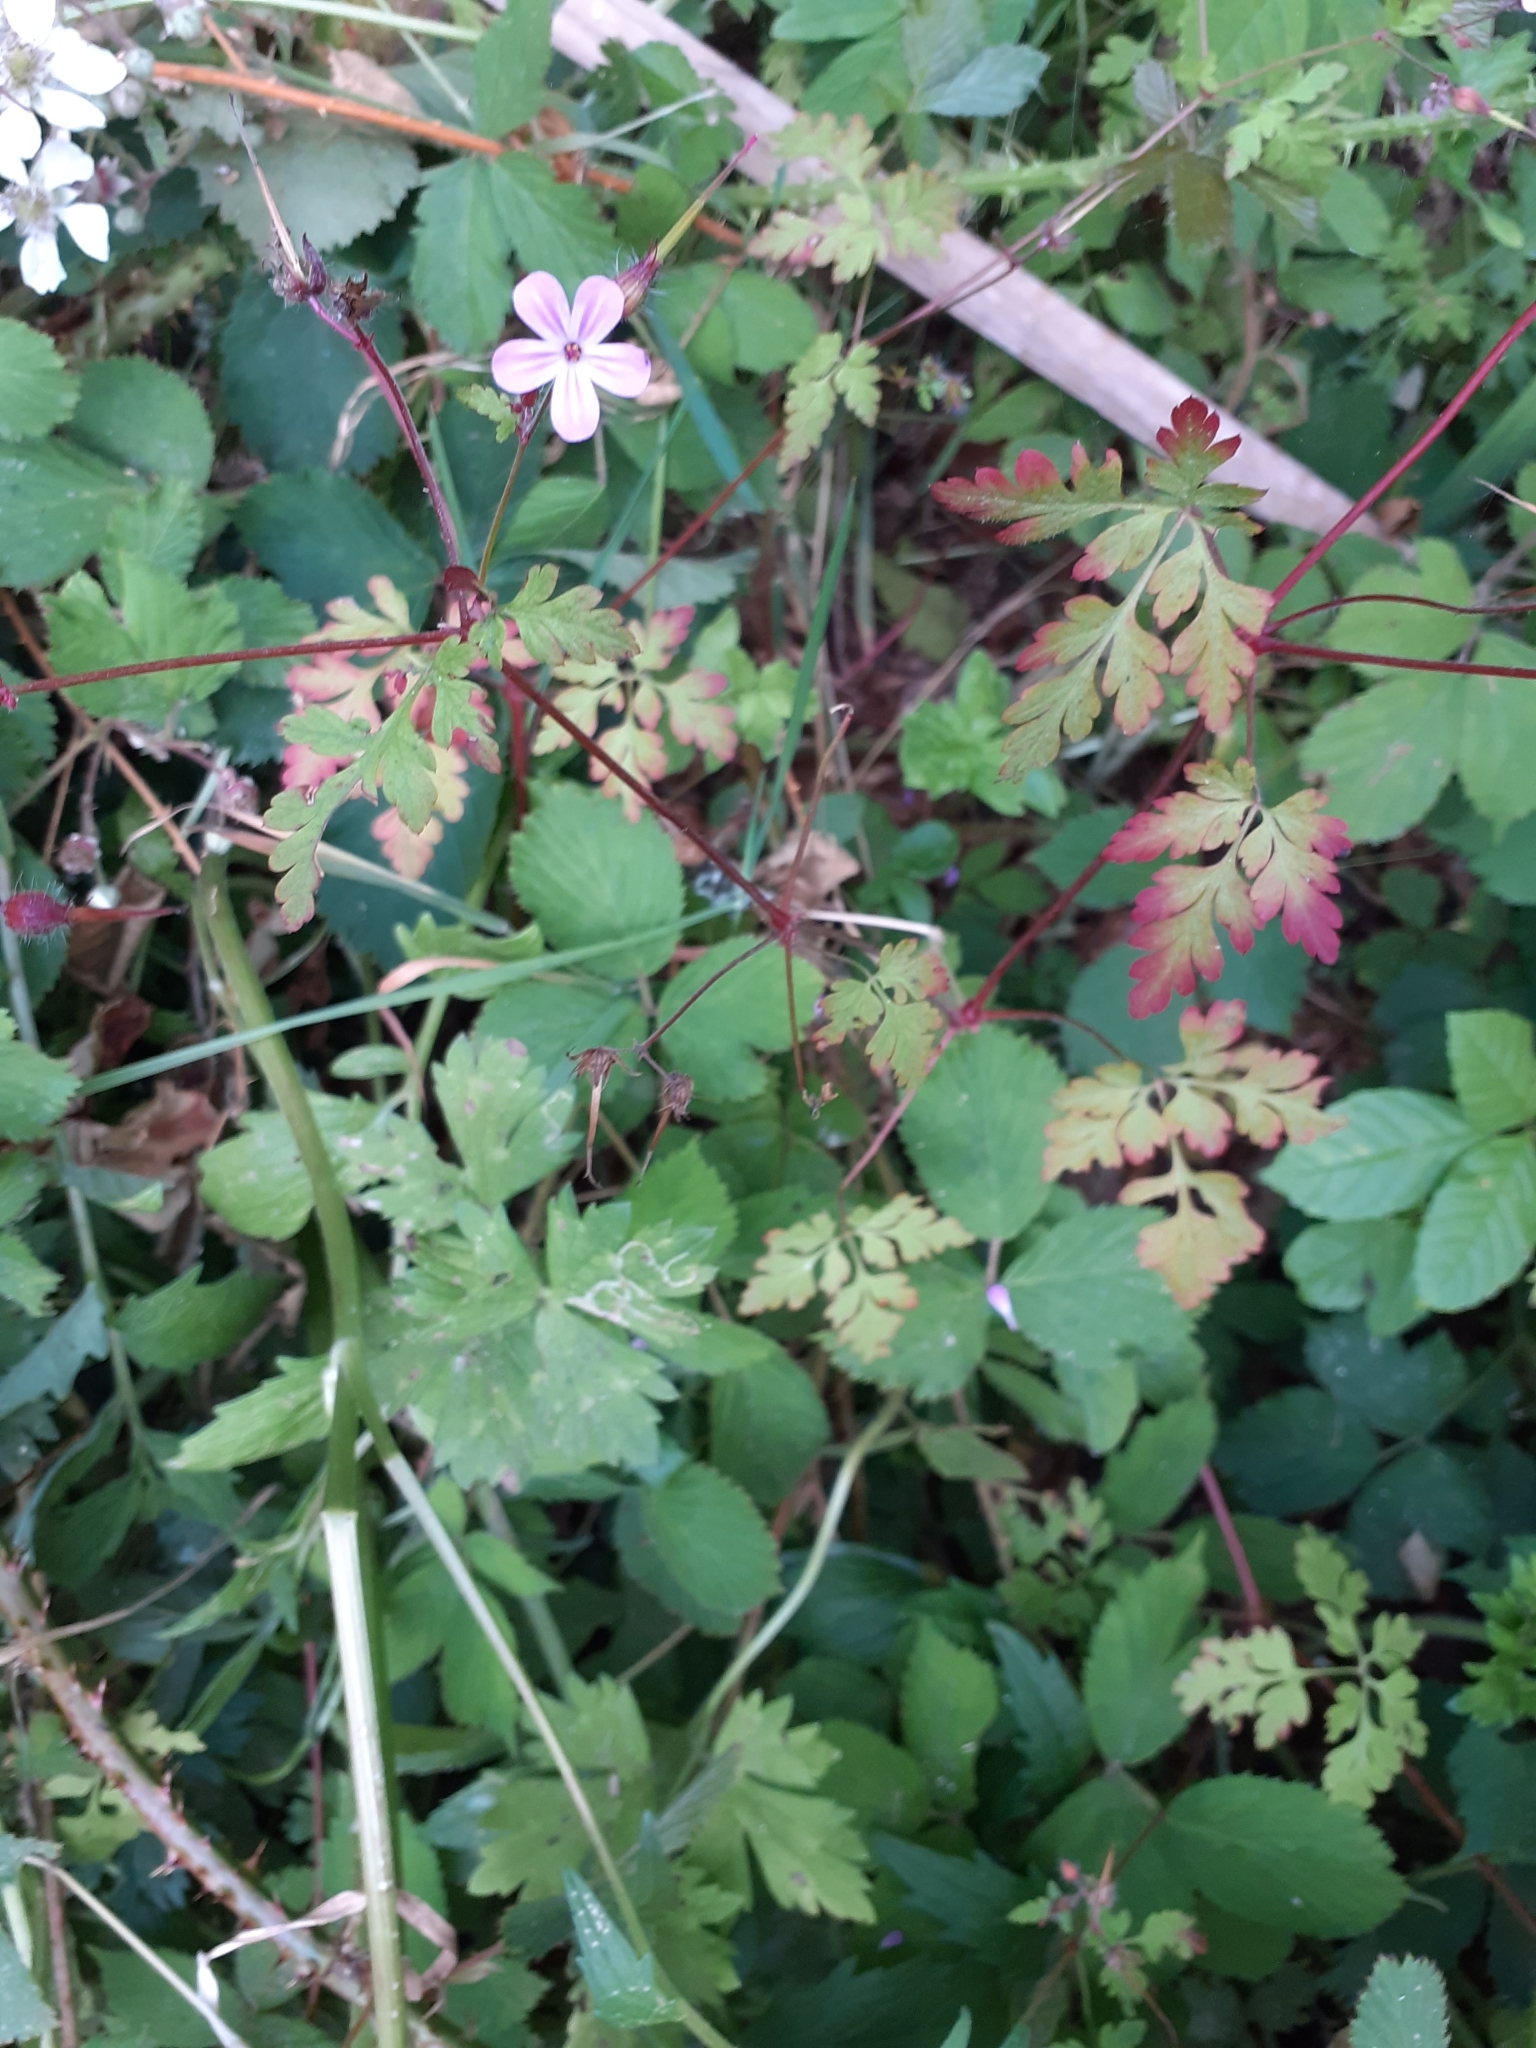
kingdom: Plantae
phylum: Tracheophyta
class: Magnoliopsida
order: Geraniales
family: Geraniaceae
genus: Geranium
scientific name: Geranium robertianum
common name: Herb-robert
